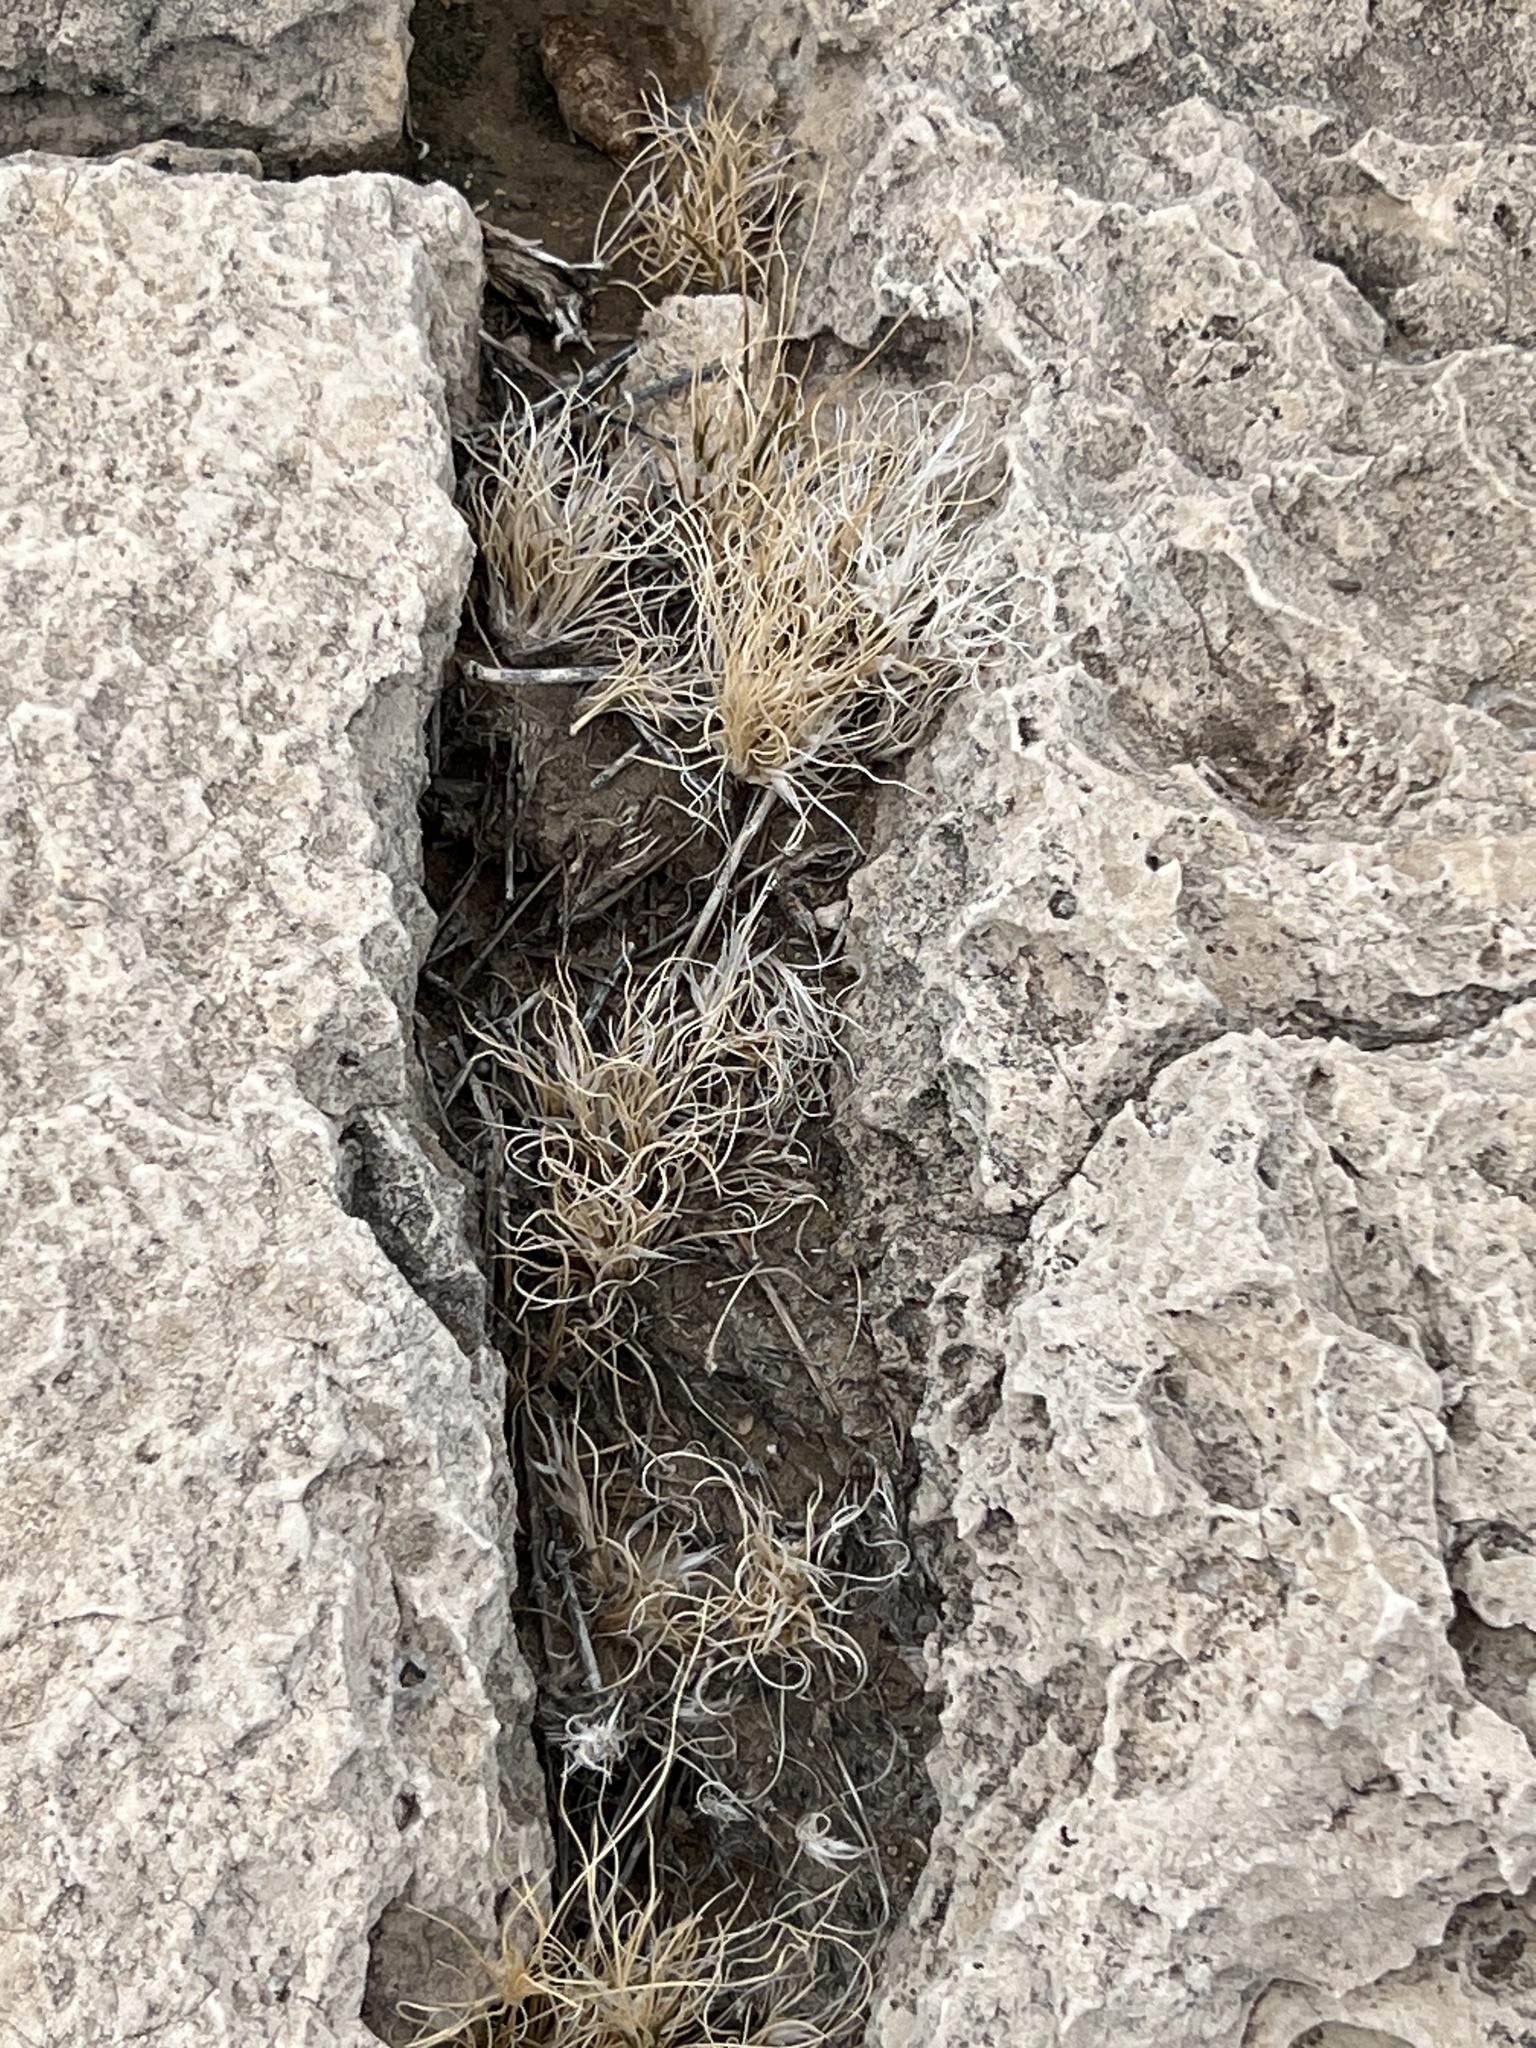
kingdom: Plantae
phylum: Tracheophyta
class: Liliopsida
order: Poales
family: Poaceae
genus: Dasyochloa
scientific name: Dasyochloa pulchella
